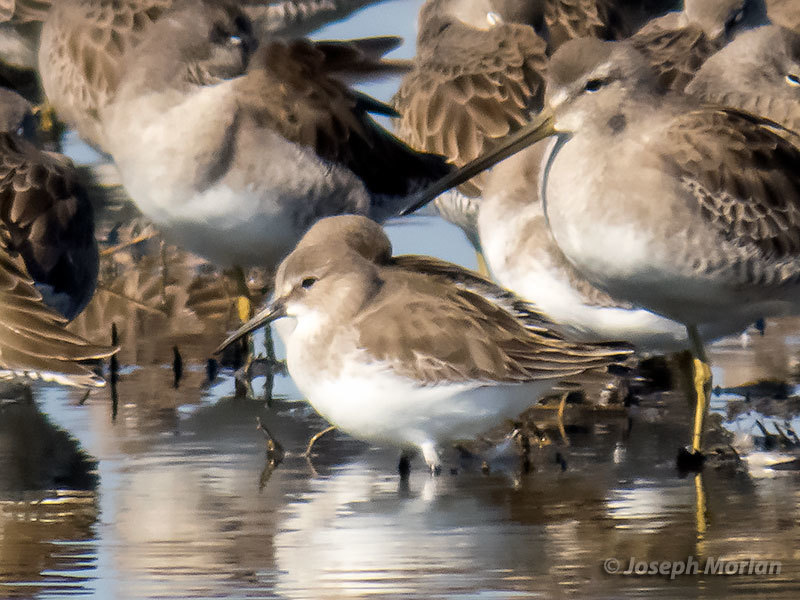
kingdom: Animalia
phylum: Chordata
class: Aves
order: Charadriiformes
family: Scolopacidae
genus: Calidris
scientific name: Calidris alpina
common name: Dunlin
